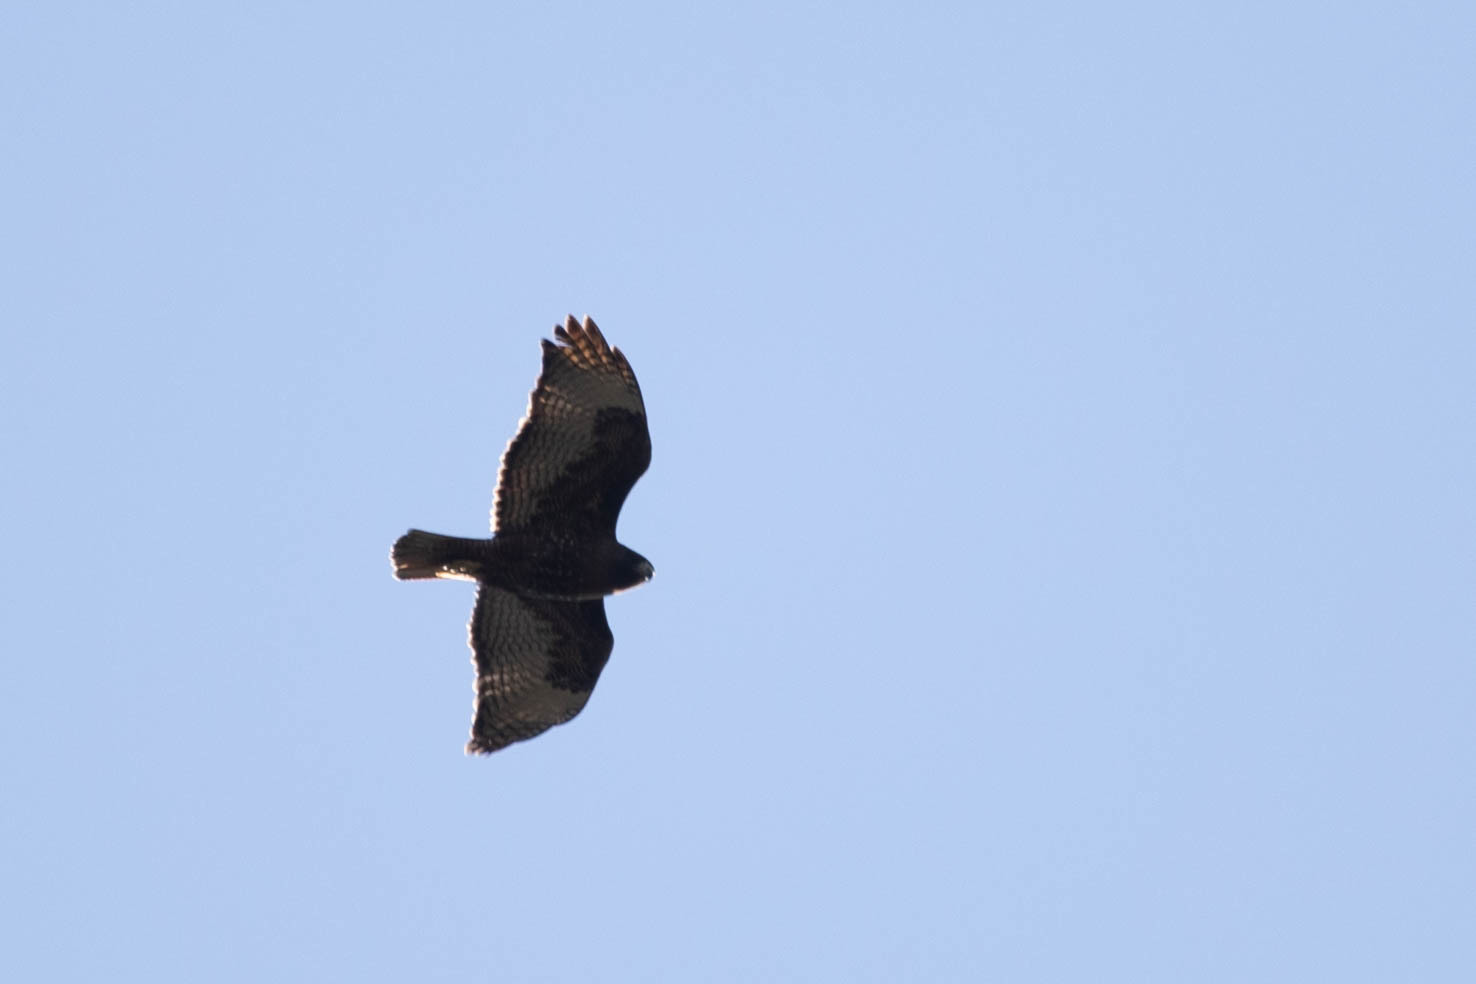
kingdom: Animalia
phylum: Chordata
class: Aves
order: Accipitriformes
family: Accipitridae
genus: Buteo
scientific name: Buteo jamaicensis
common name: Red-tailed hawk
